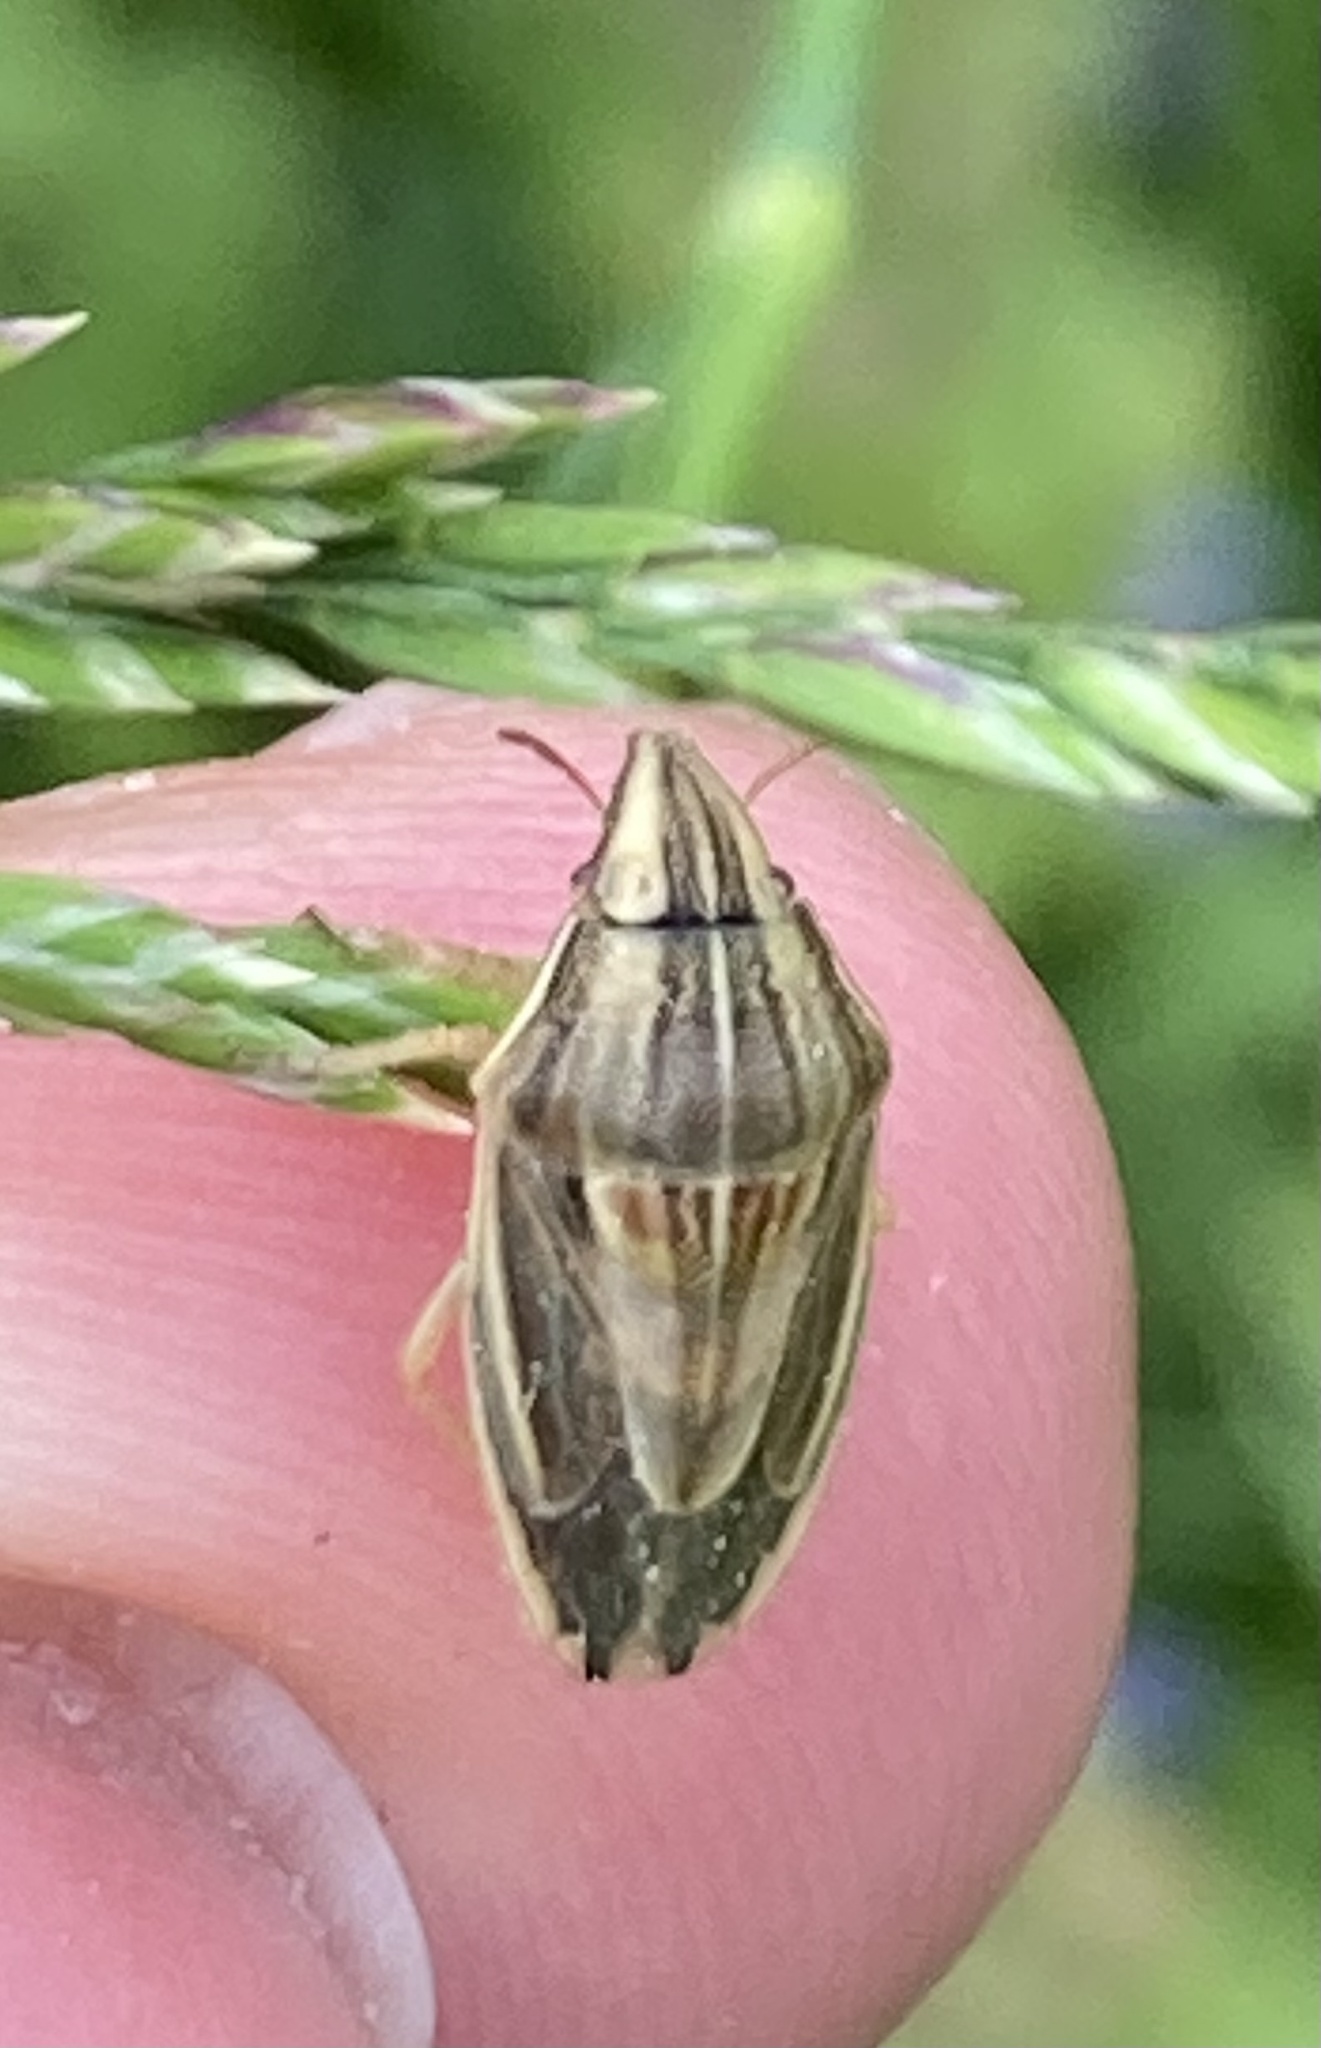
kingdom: Animalia
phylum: Arthropoda
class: Insecta
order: Hemiptera
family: Pentatomidae
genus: Aelia
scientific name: Aelia acuminata
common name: Bishop's mitre
